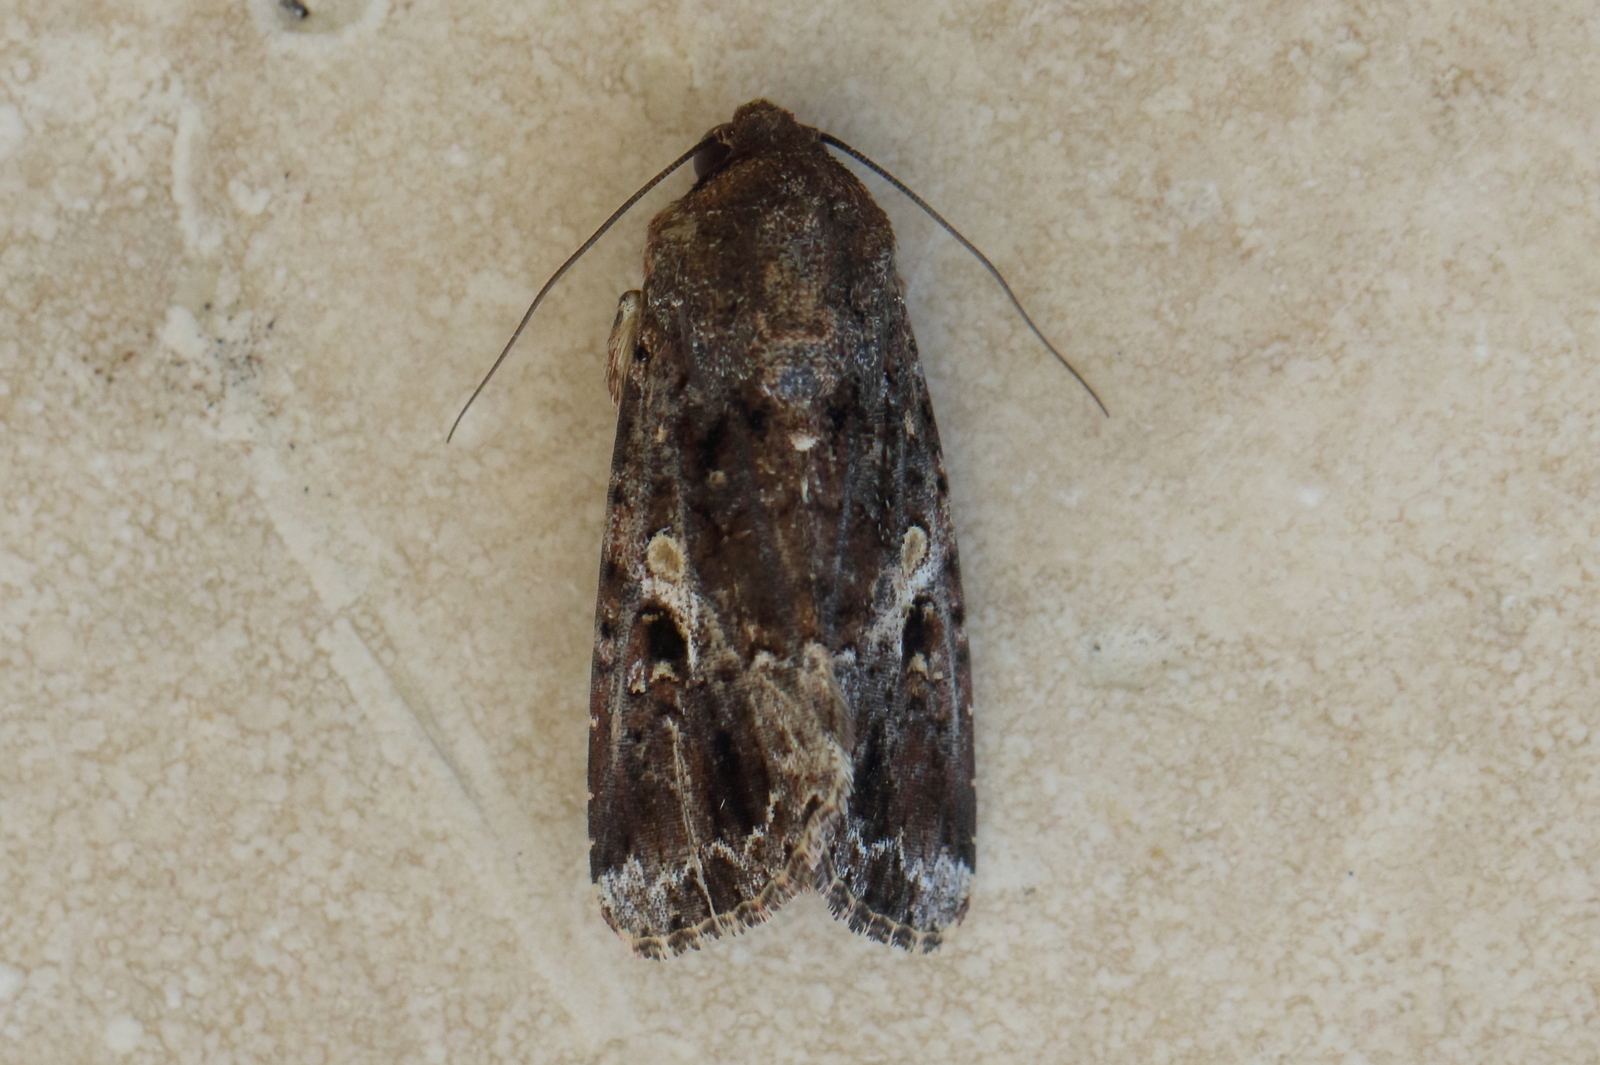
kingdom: Animalia
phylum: Arthropoda
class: Insecta
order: Lepidoptera
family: Noctuidae
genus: Spodoptera
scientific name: Spodoptera mauritia
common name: Lawn armyworm
